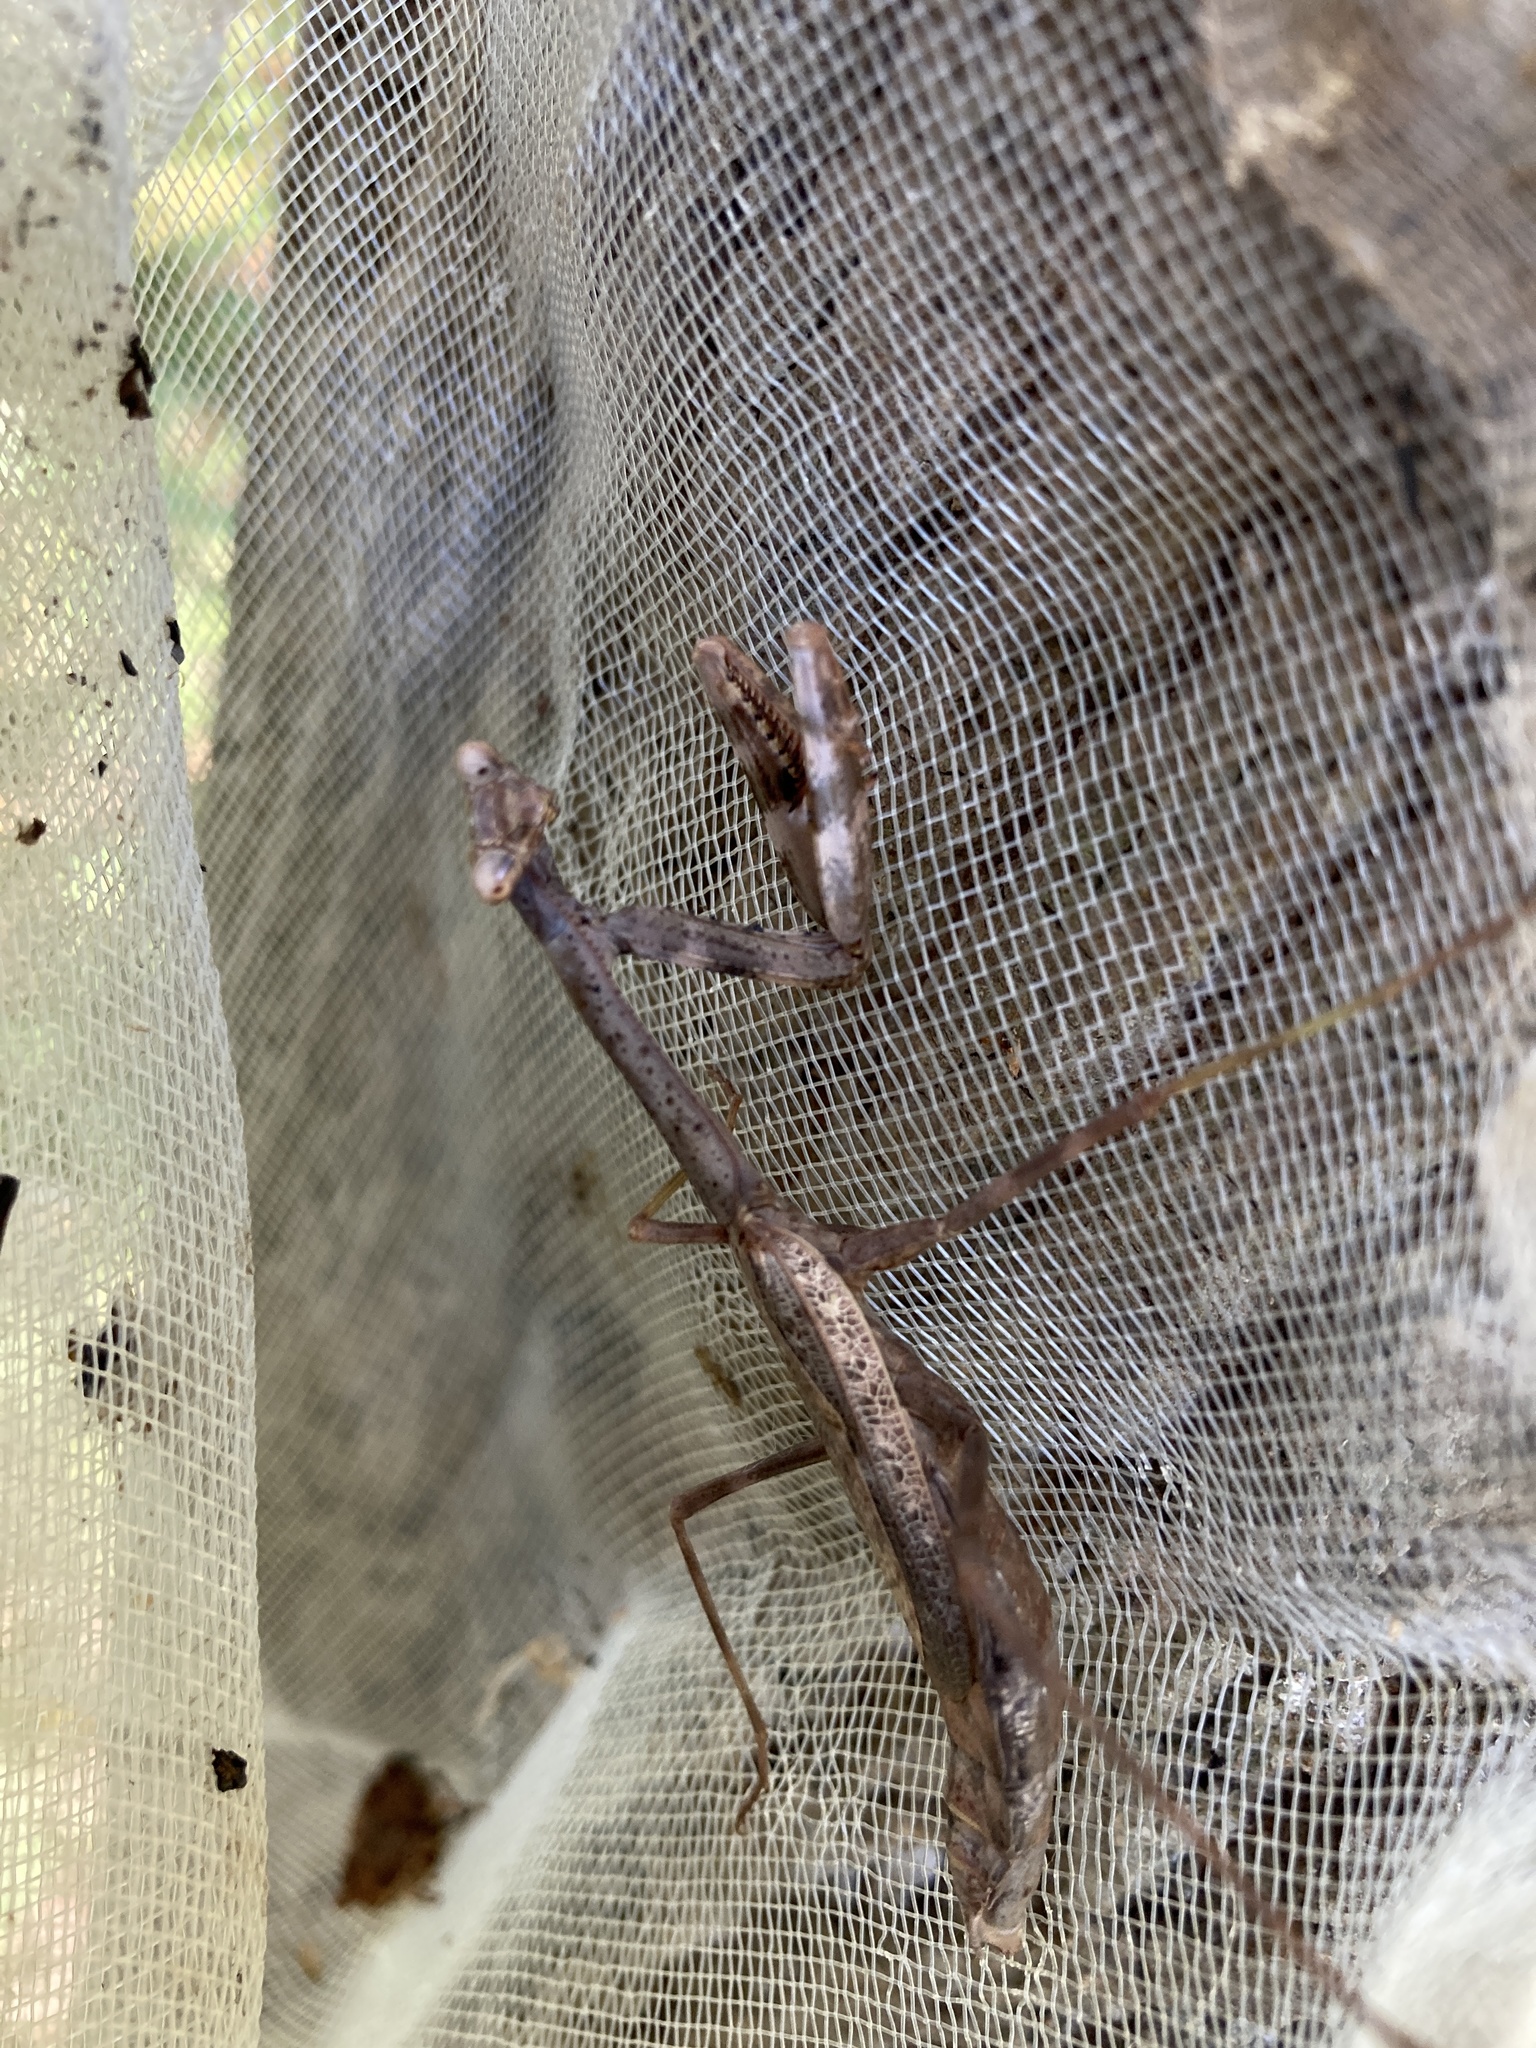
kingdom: Animalia
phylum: Arthropoda
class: Insecta
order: Mantodea
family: Mantidae
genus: Stagmomantis
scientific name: Stagmomantis carolina
